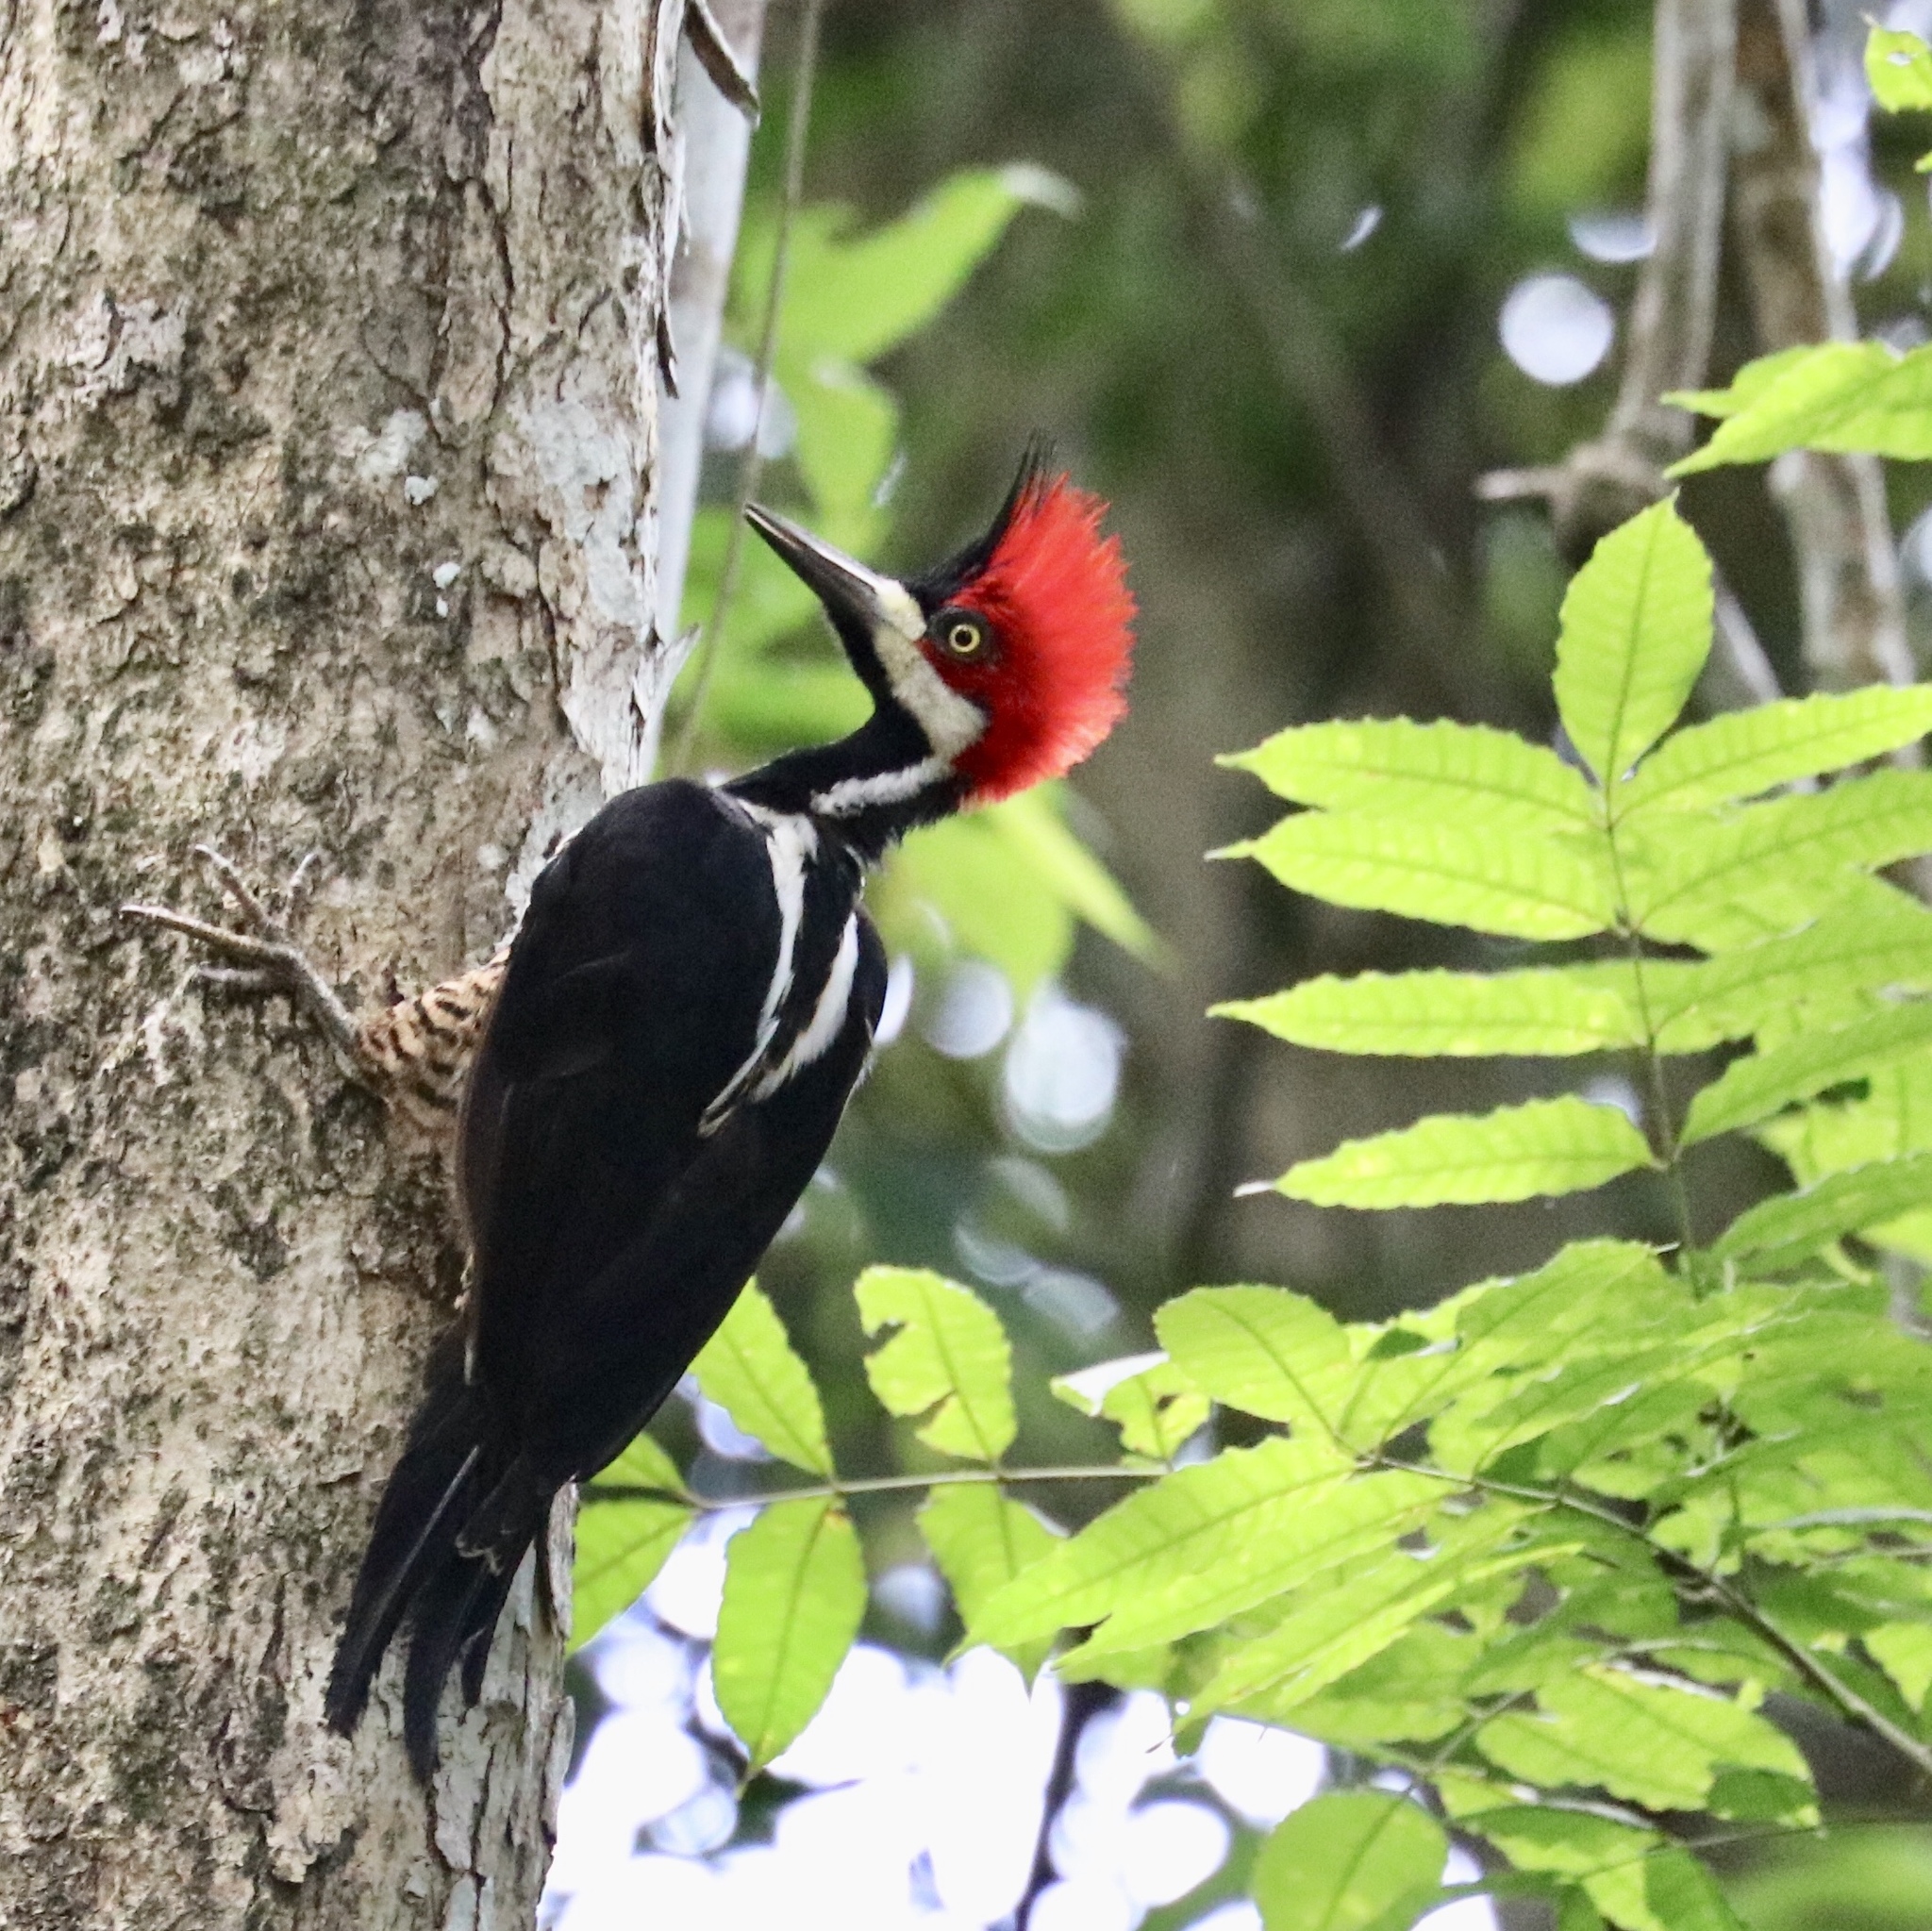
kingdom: Animalia
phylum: Chordata
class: Aves
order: Piciformes
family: Picidae
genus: Campephilus
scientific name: Campephilus melanoleucos
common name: Crimson-crested woodpecker
